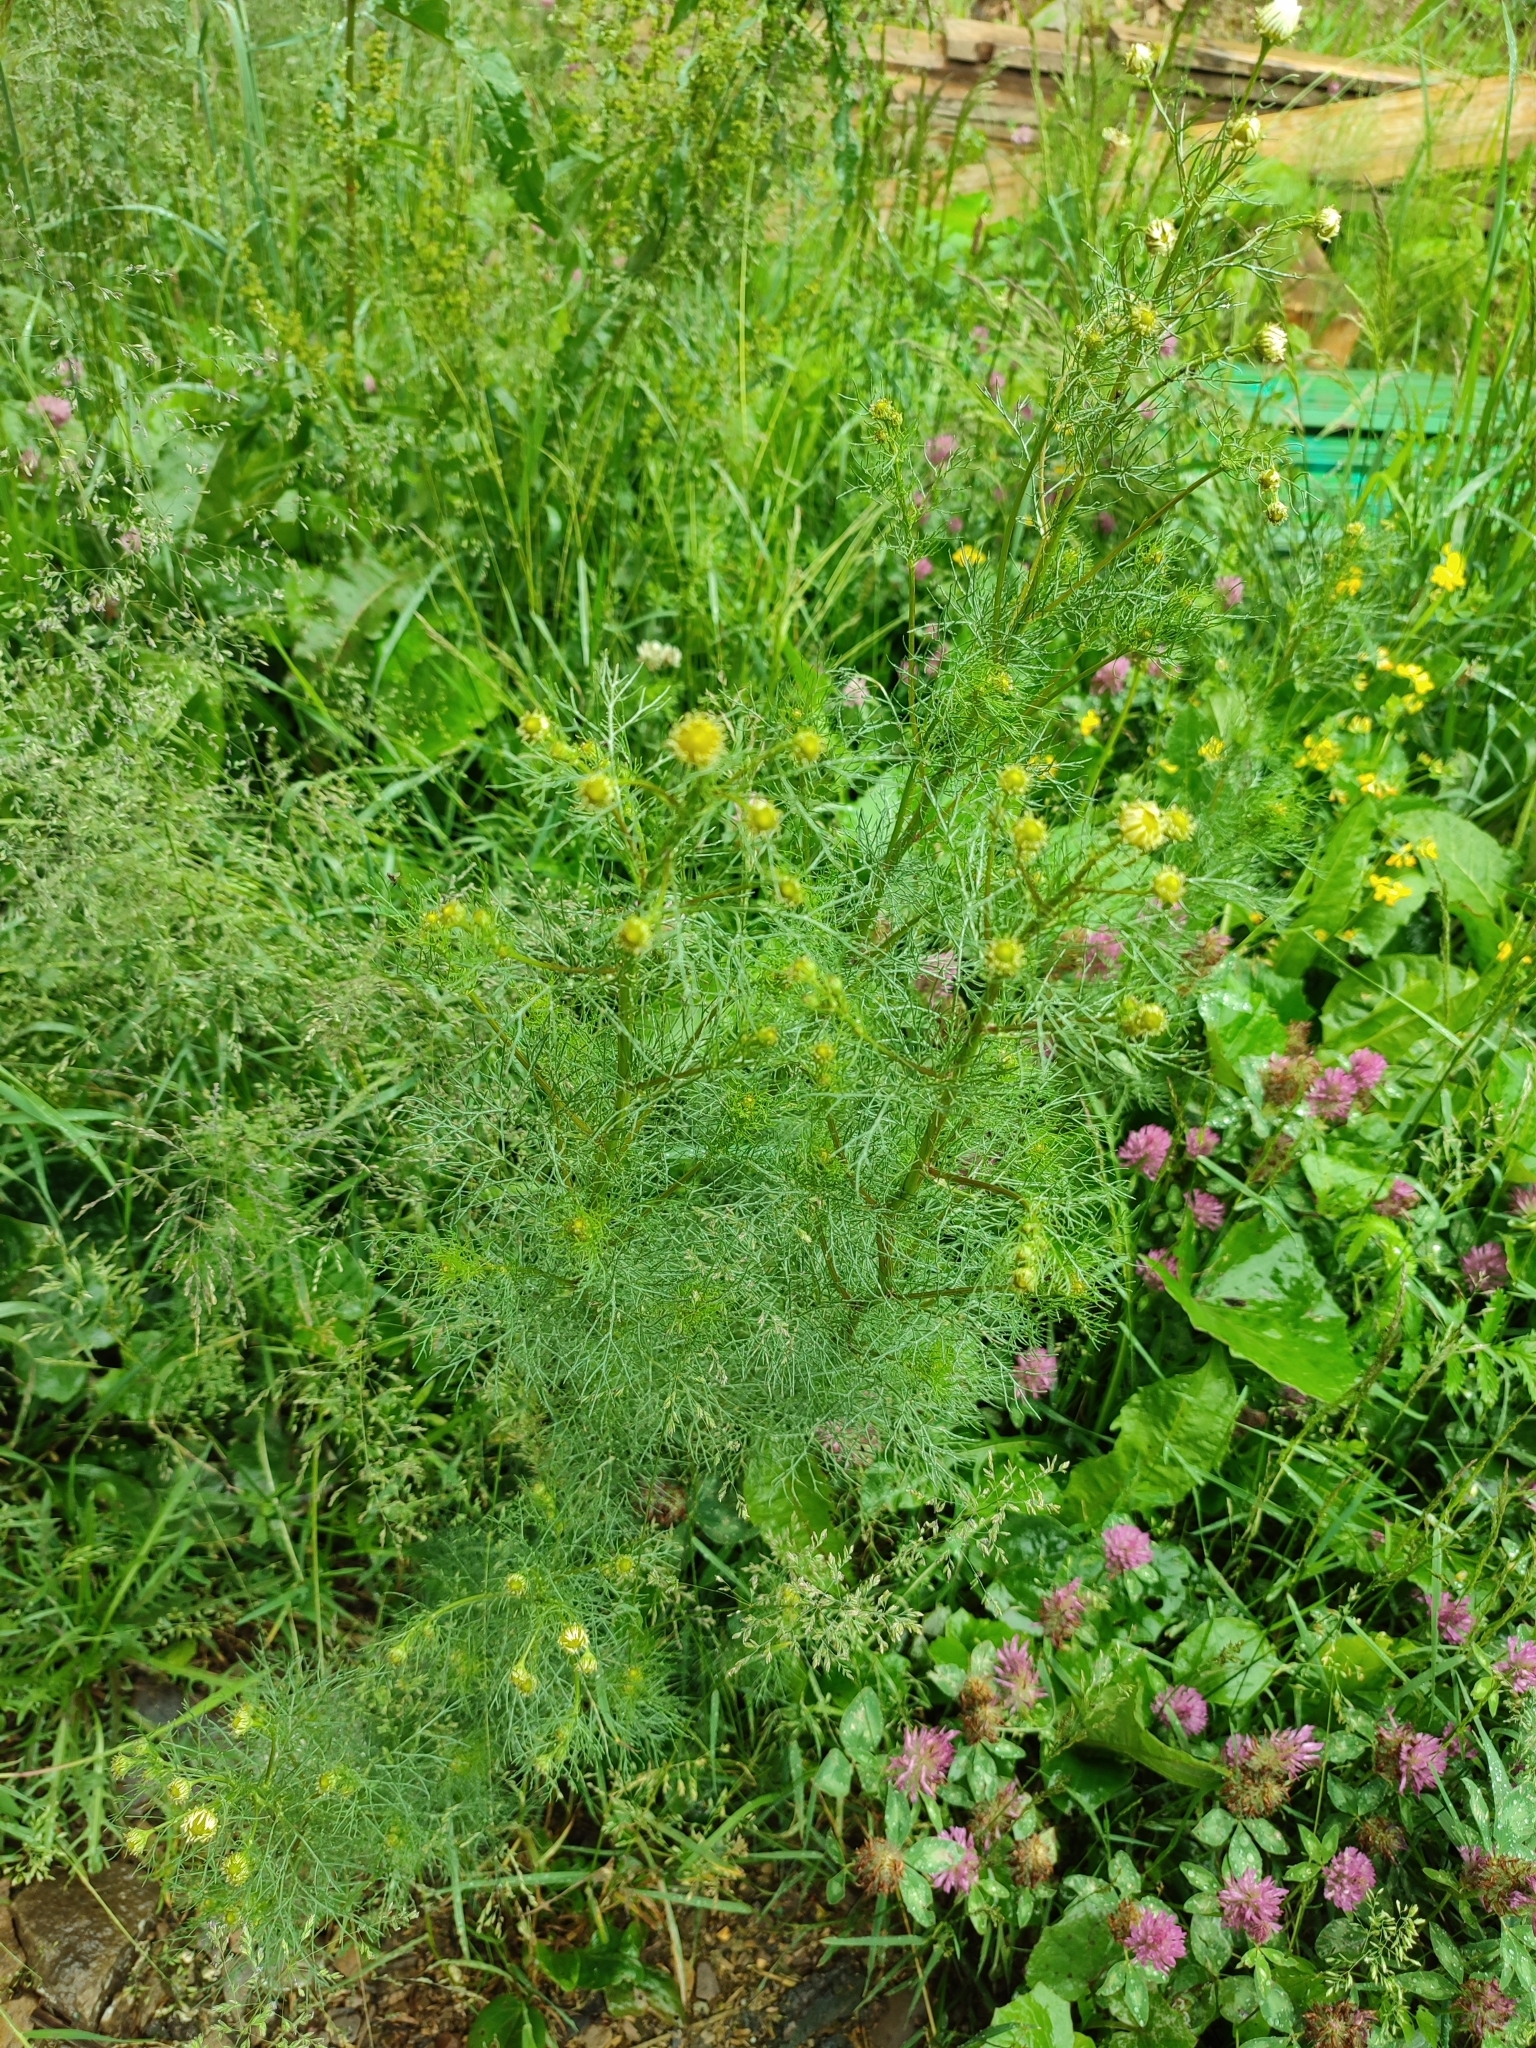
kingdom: Plantae
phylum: Tracheophyta
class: Magnoliopsida
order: Asterales
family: Asteraceae
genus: Tripleurospermum
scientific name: Tripleurospermum inodorum
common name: Scentless mayweed
